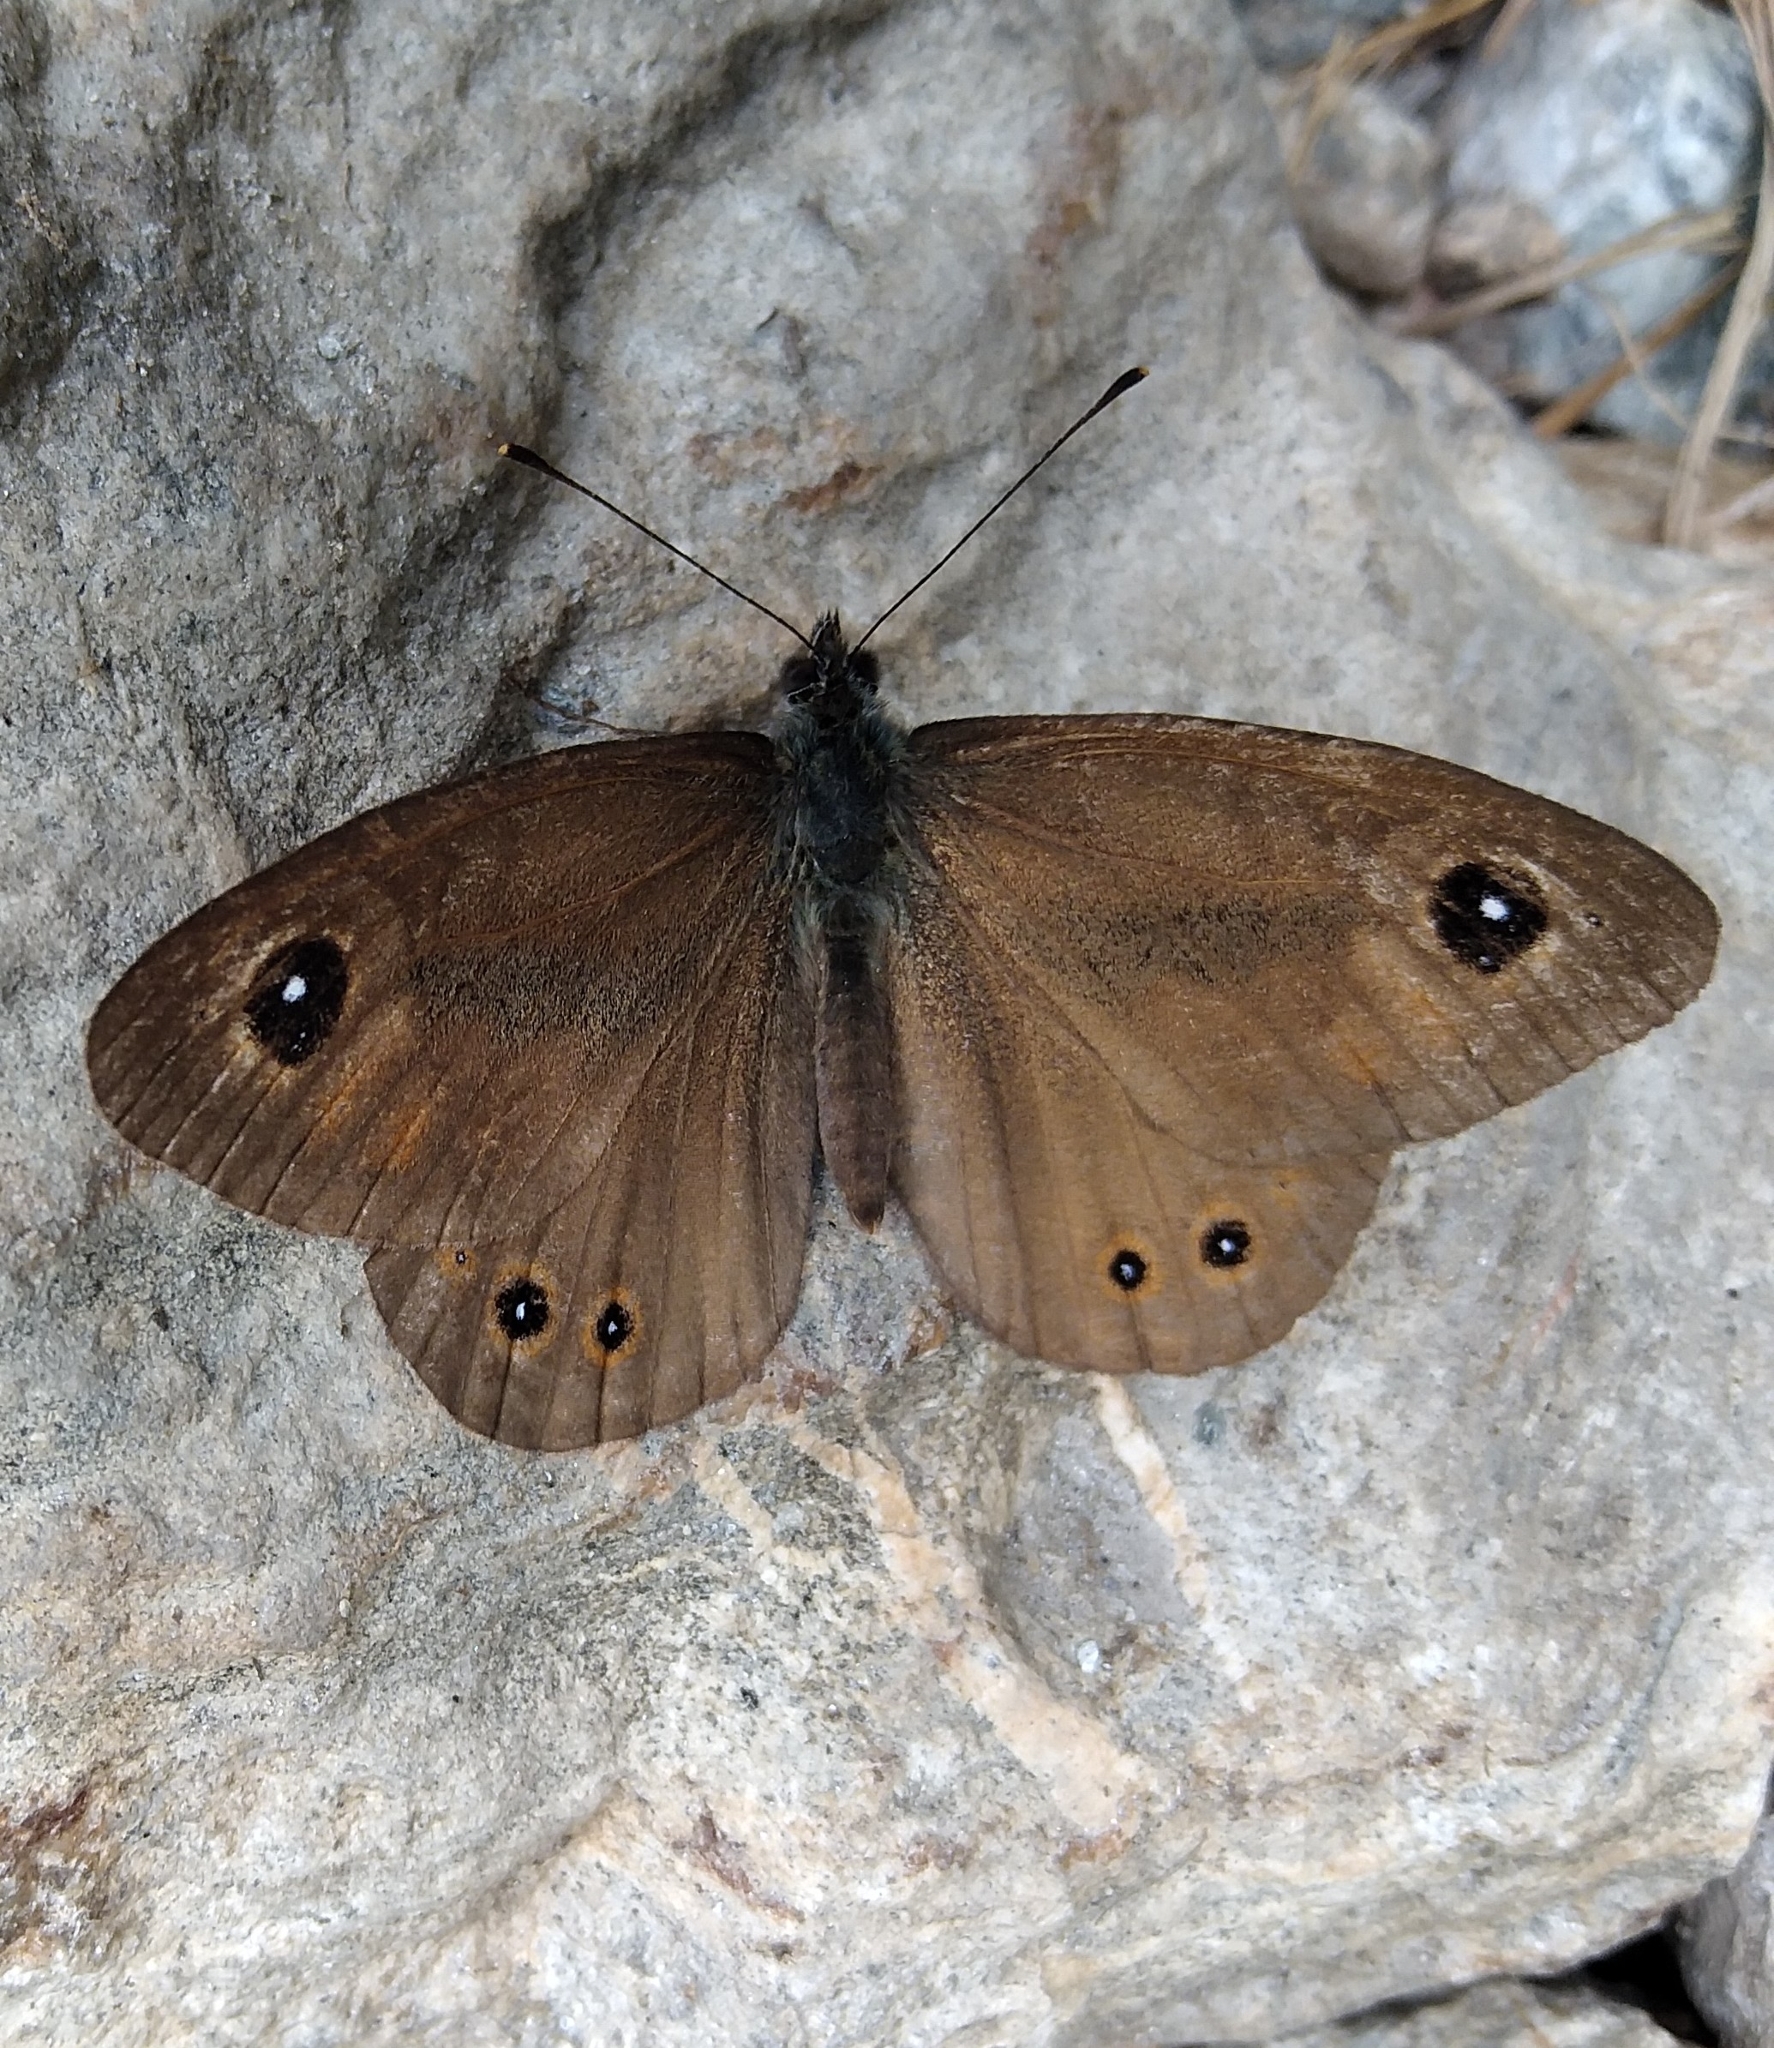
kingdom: Animalia
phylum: Arthropoda
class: Insecta
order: Lepidoptera
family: Nymphalidae
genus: Pararge
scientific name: Pararge Lasiommata maera
